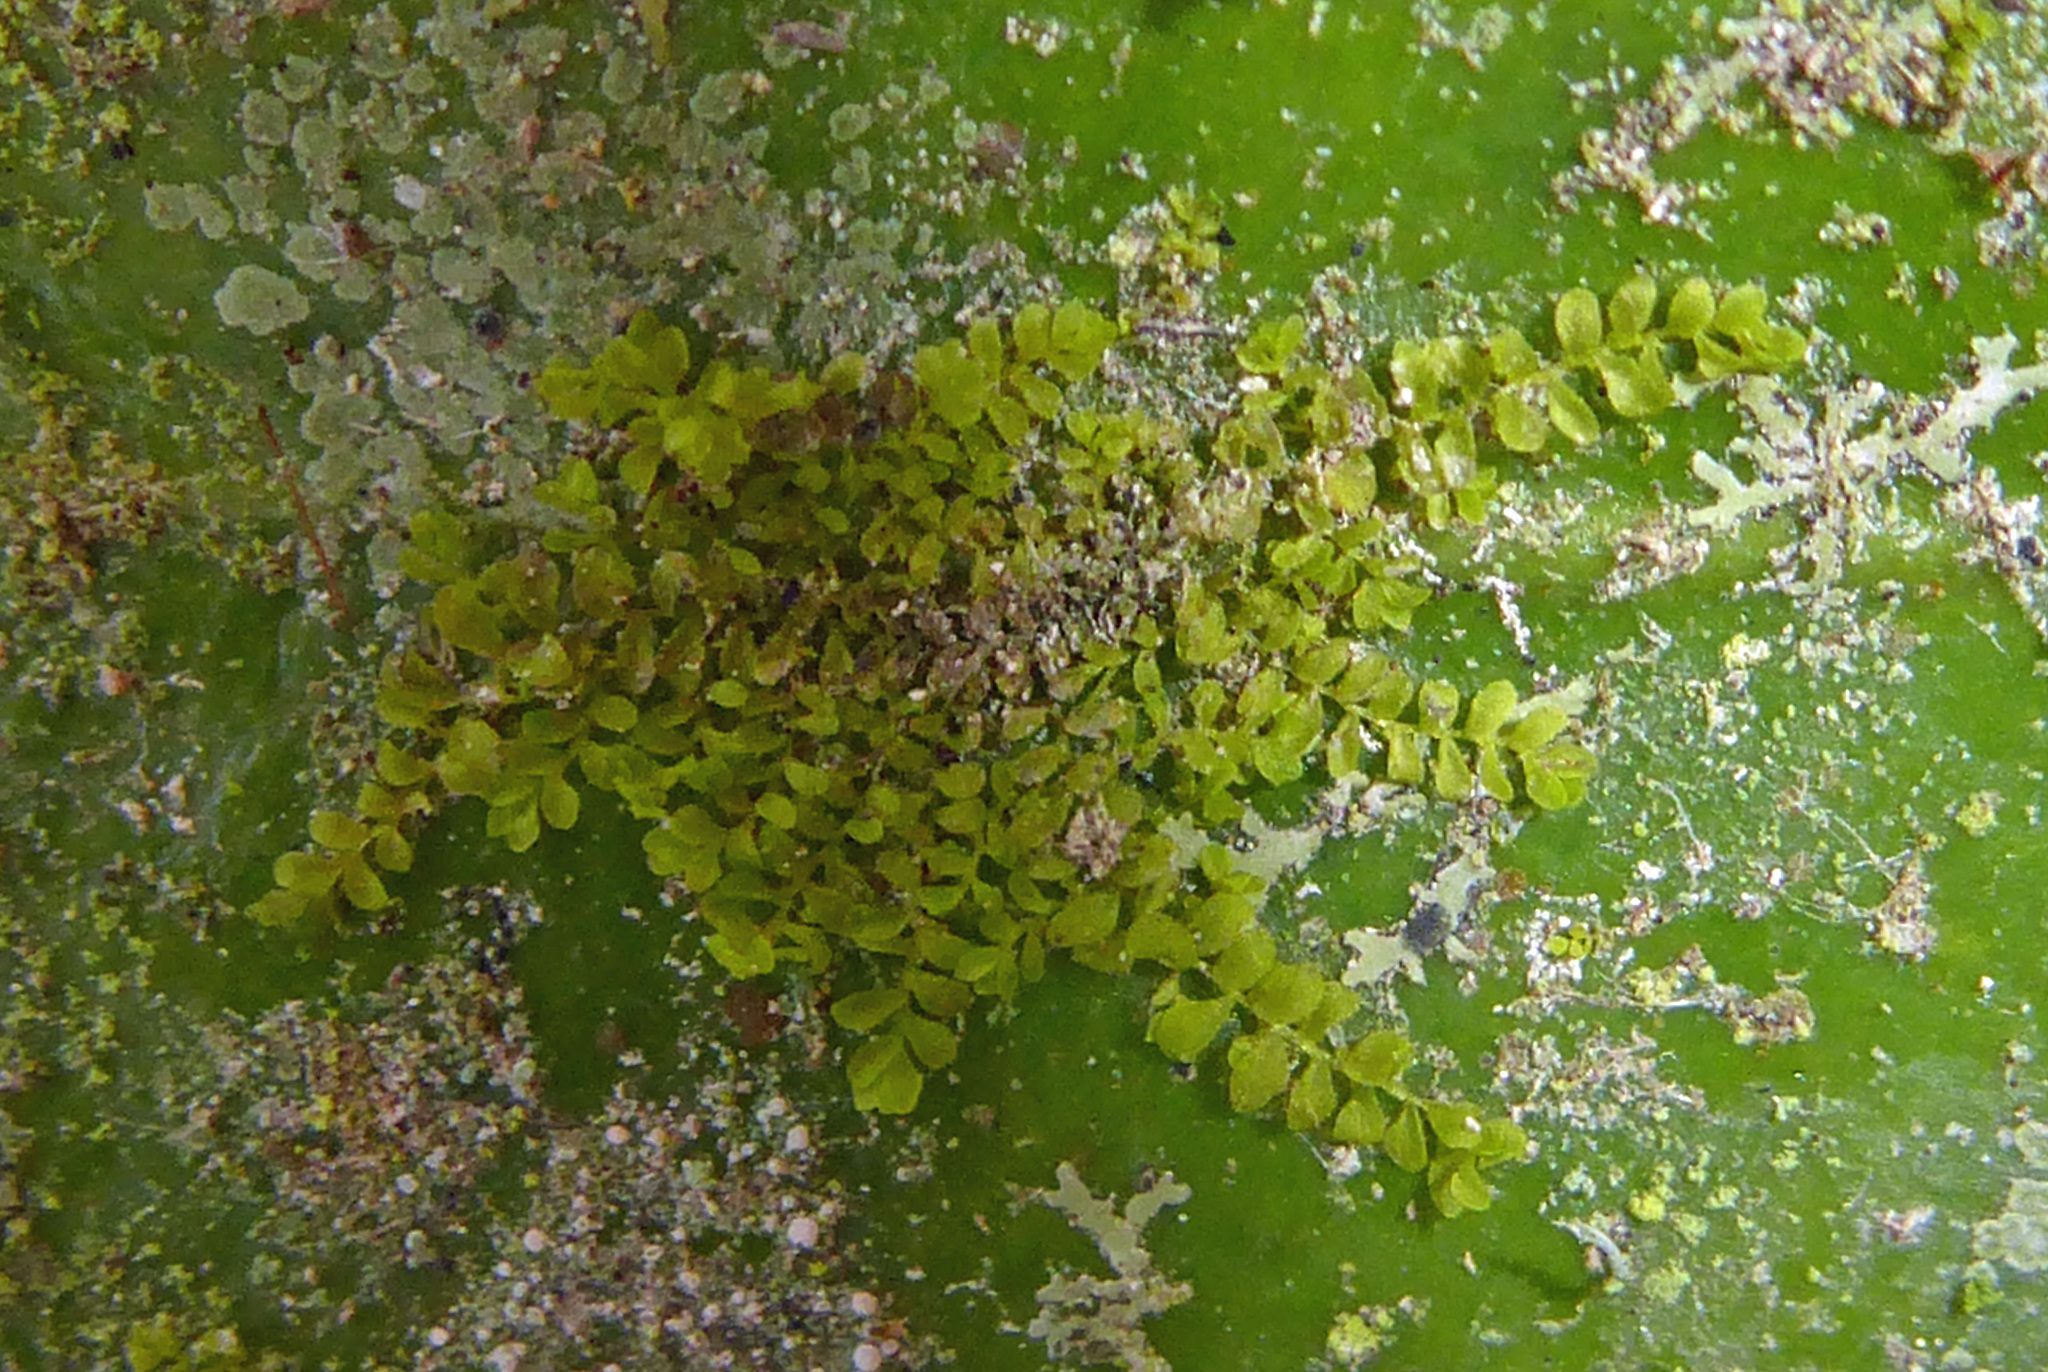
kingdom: Plantae
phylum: Marchantiophyta
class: Jungermanniopsida
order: Porellales
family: Lejeuneaceae
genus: Siphonolejeunea
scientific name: Siphonolejeunea nudipes
